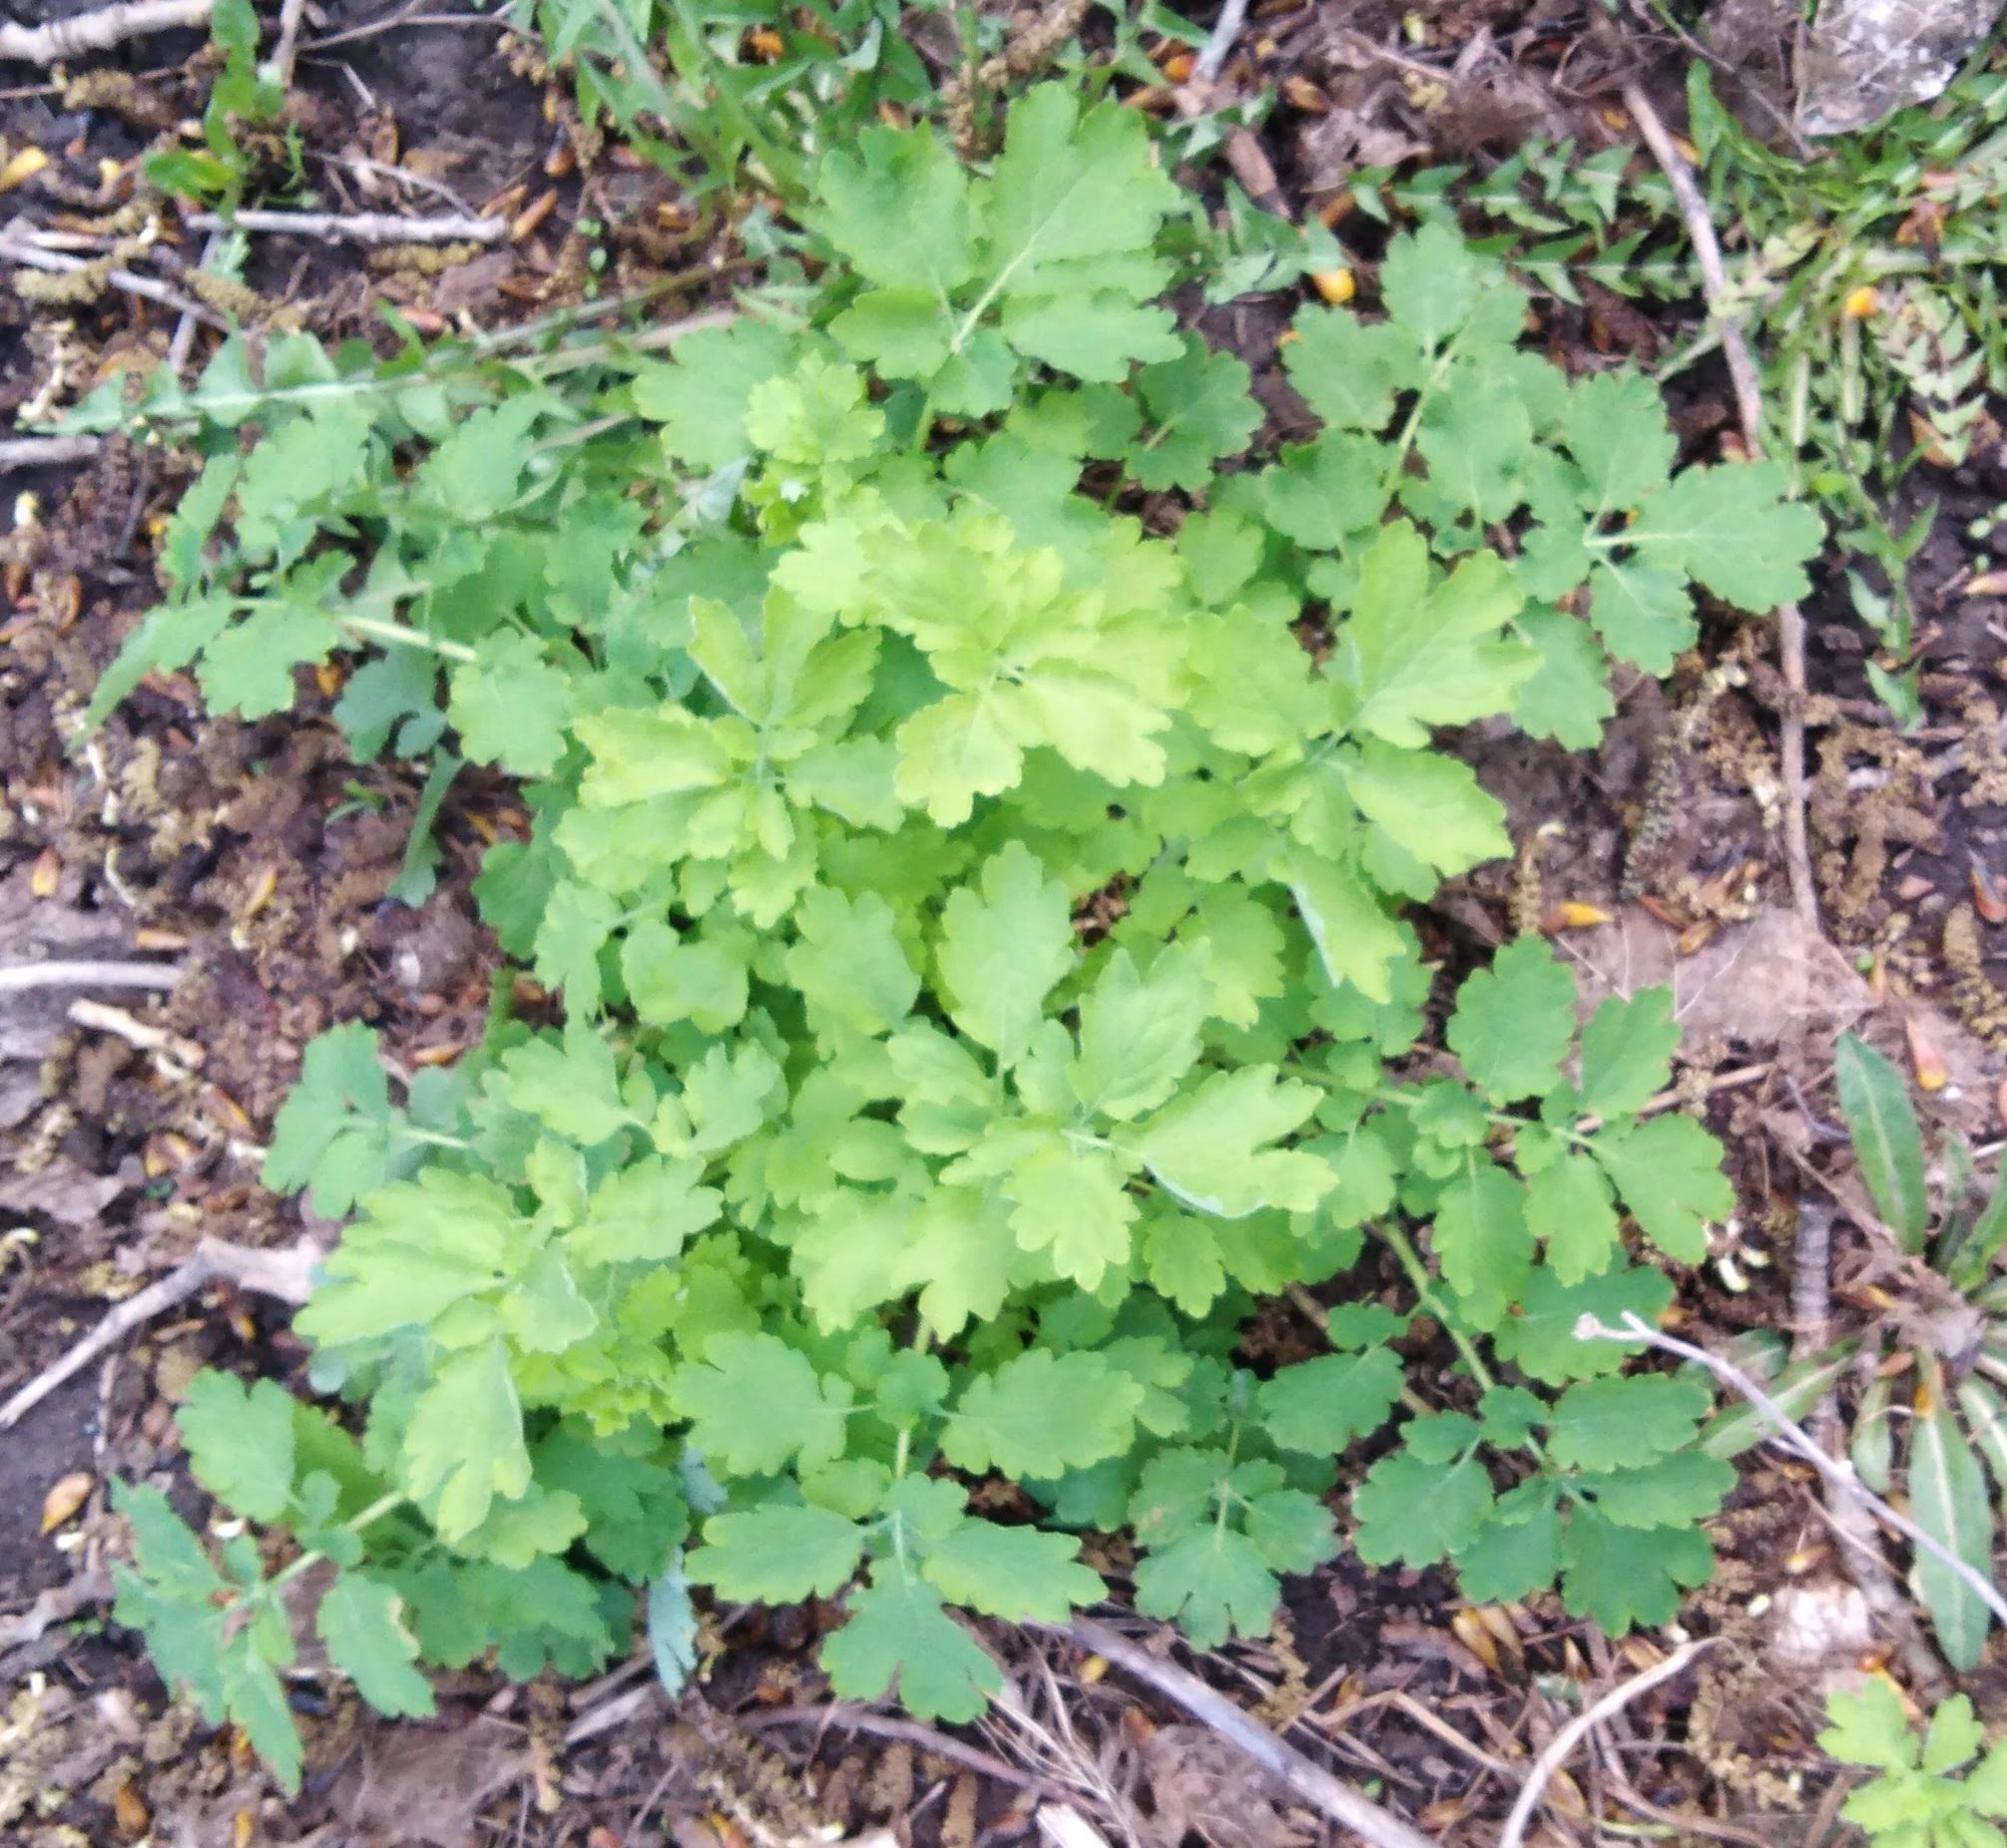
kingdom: Plantae
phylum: Tracheophyta
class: Magnoliopsida
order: Ranunculales
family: Papaveraceae
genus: Chelidonium
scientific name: Chelidonium majus
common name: Greater celandine
